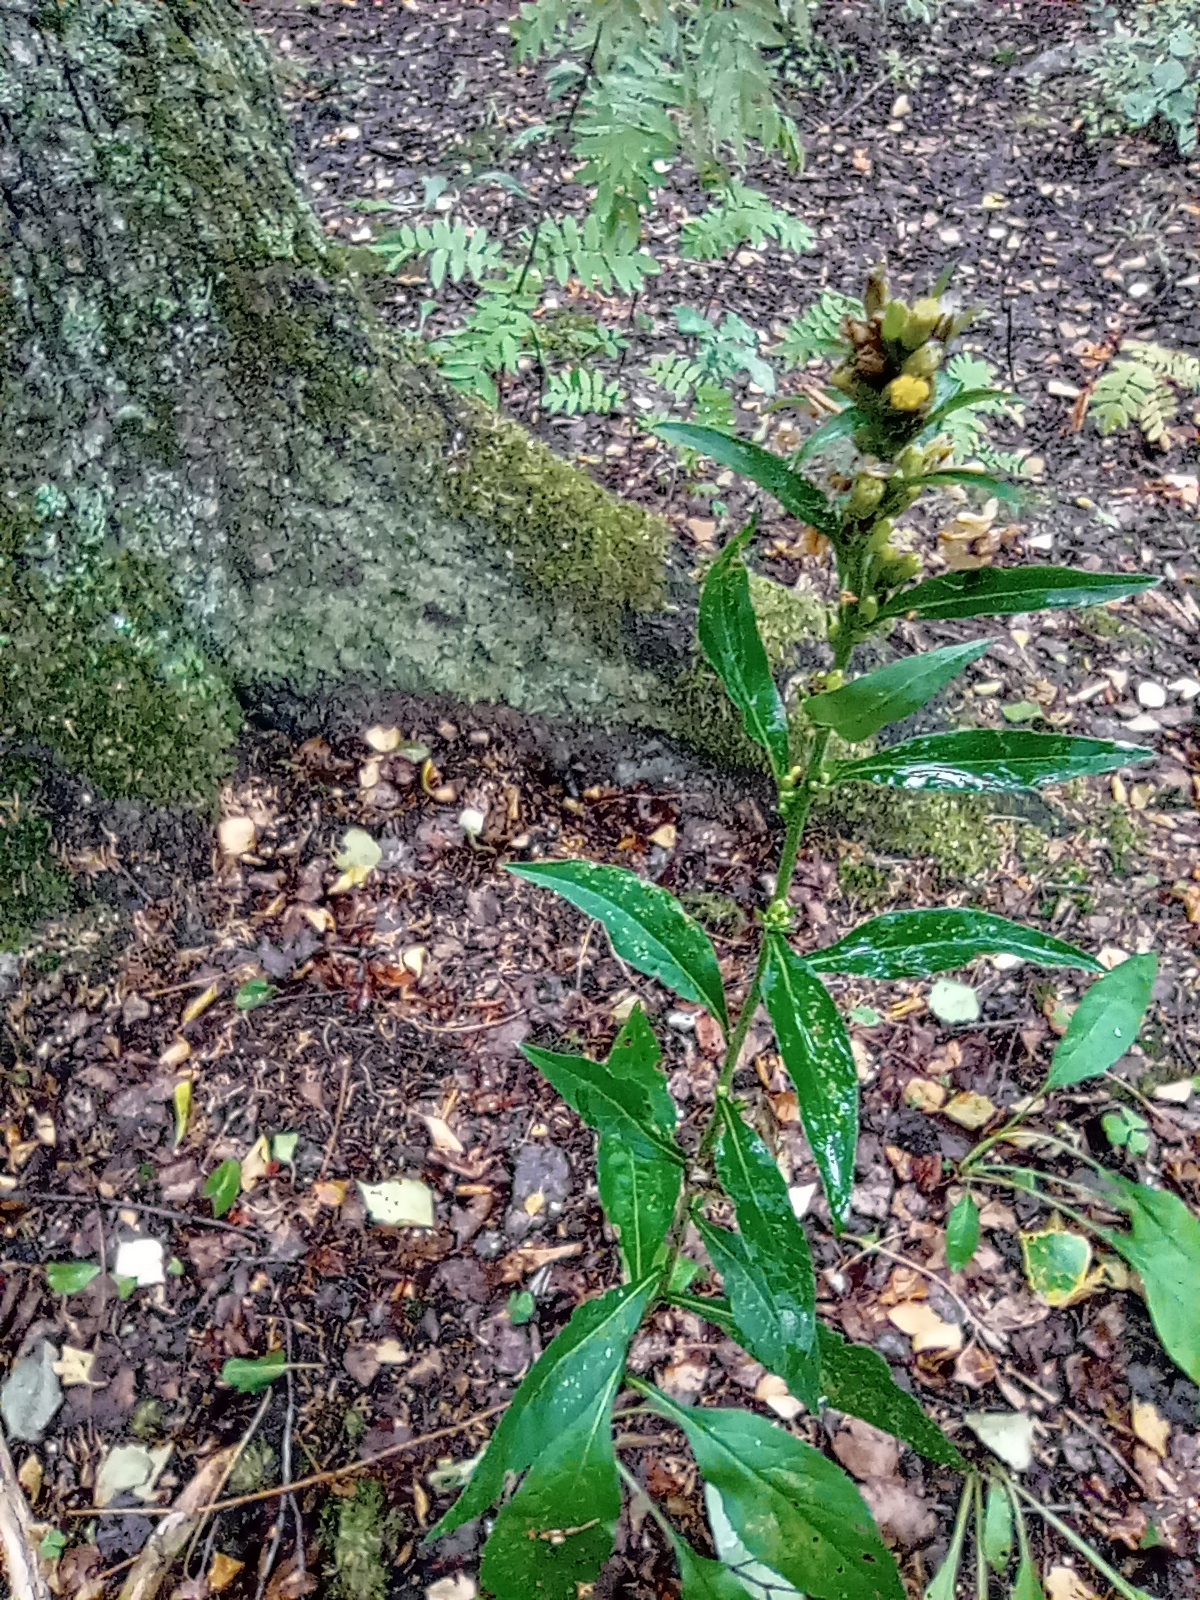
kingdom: Plantae
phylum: Tracheophyta
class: Magnoliopsida
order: Asterales
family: Asteraceae
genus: Solidago
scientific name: Solidago virgaurea
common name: Goldenrod
